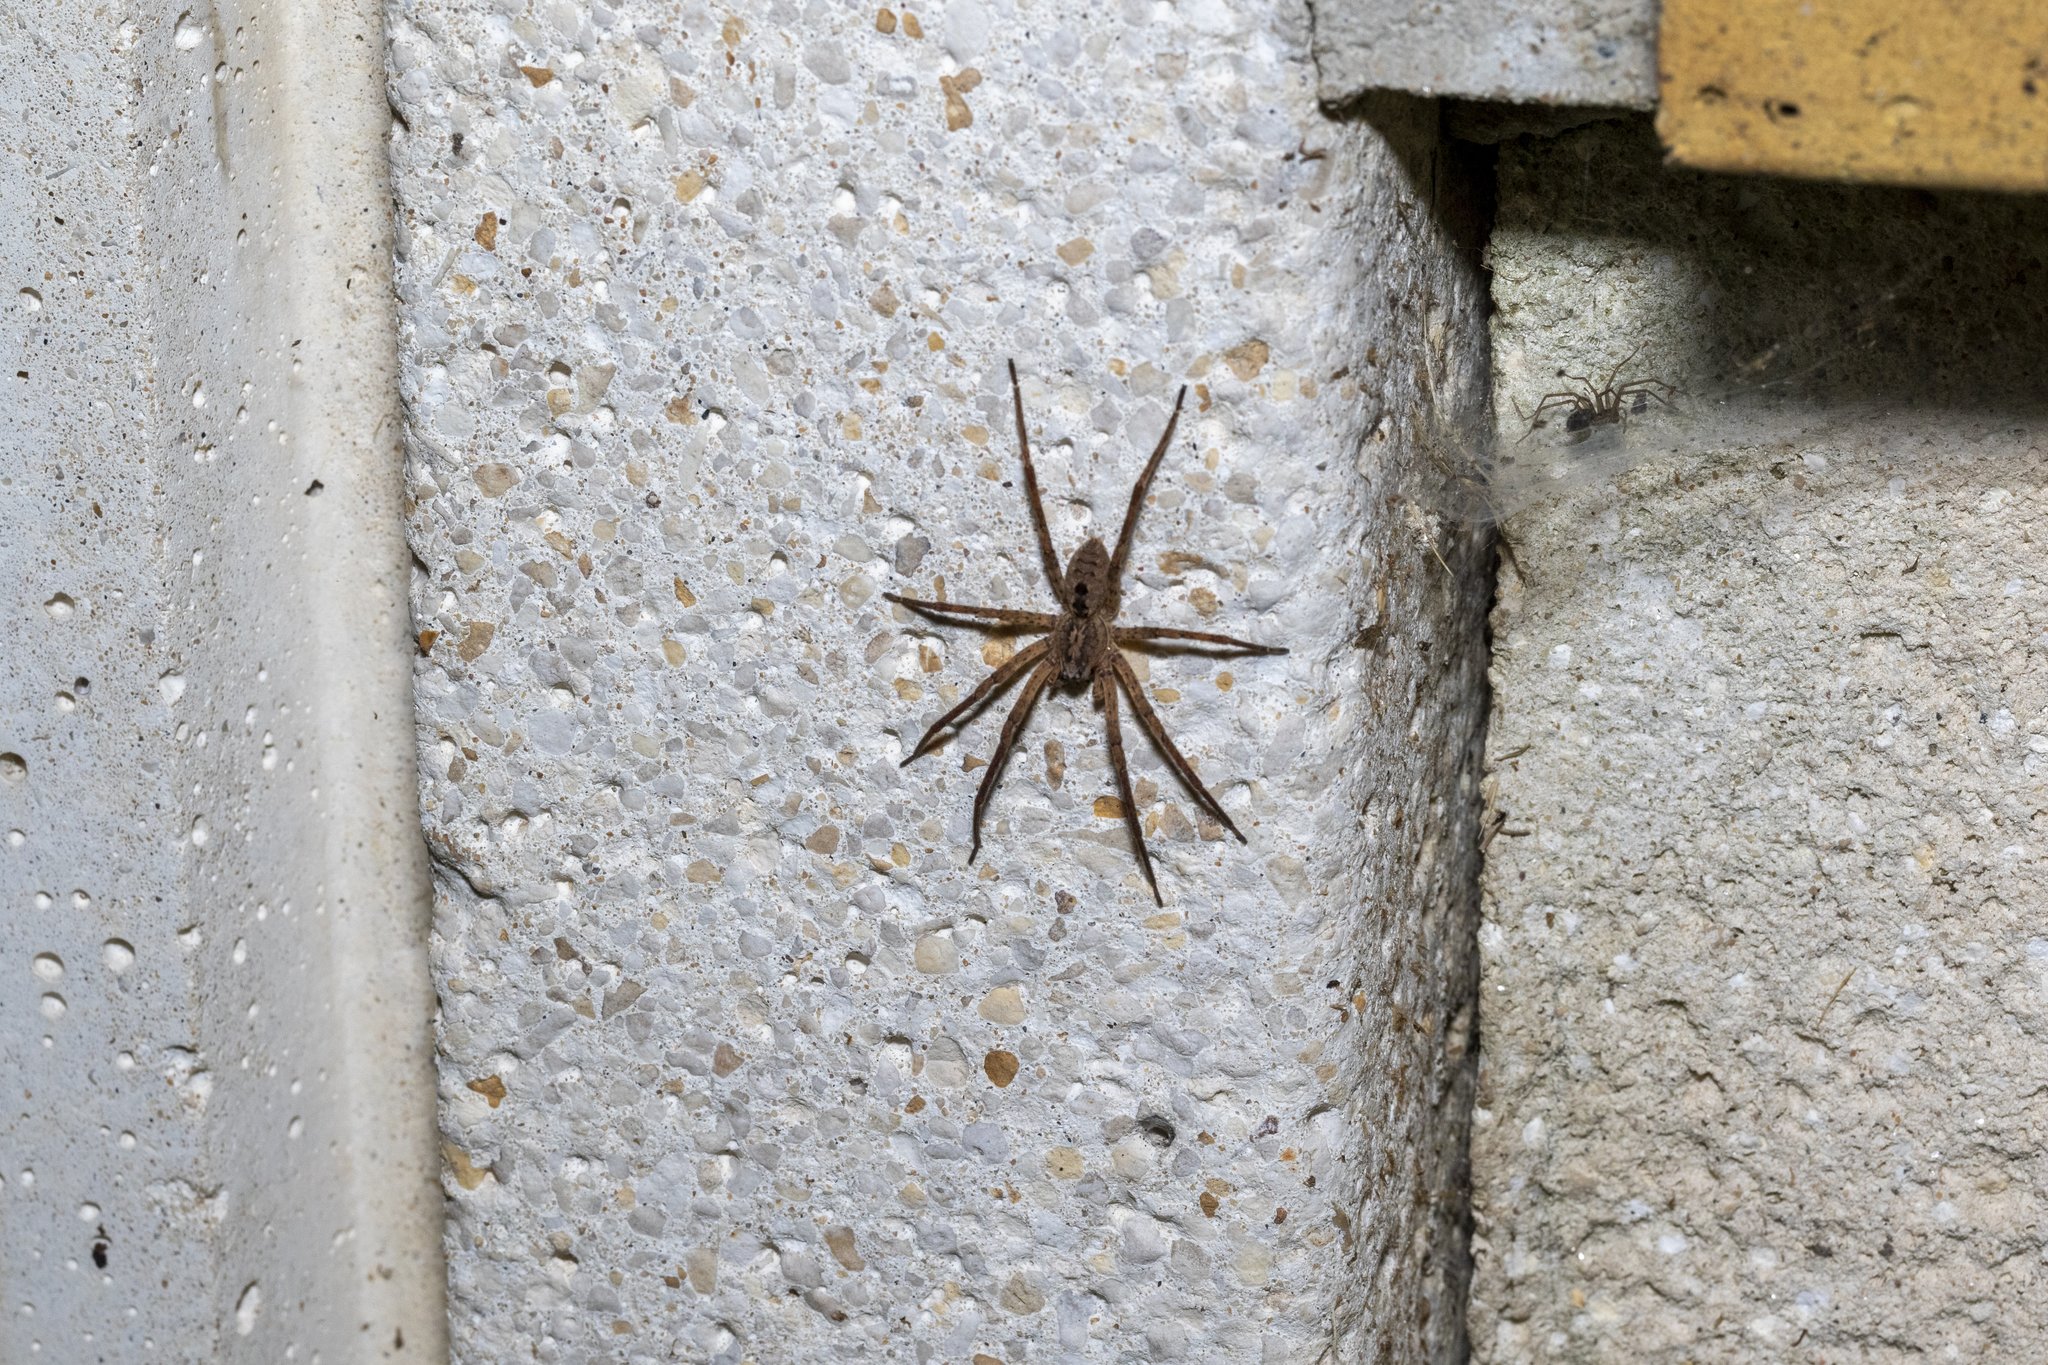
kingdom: Animalia
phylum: Arthropoda
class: Arachnida
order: Araneae
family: Zoropsidae
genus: Zoropsis
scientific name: Zoropsis spinimana
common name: Zoropsid spider
